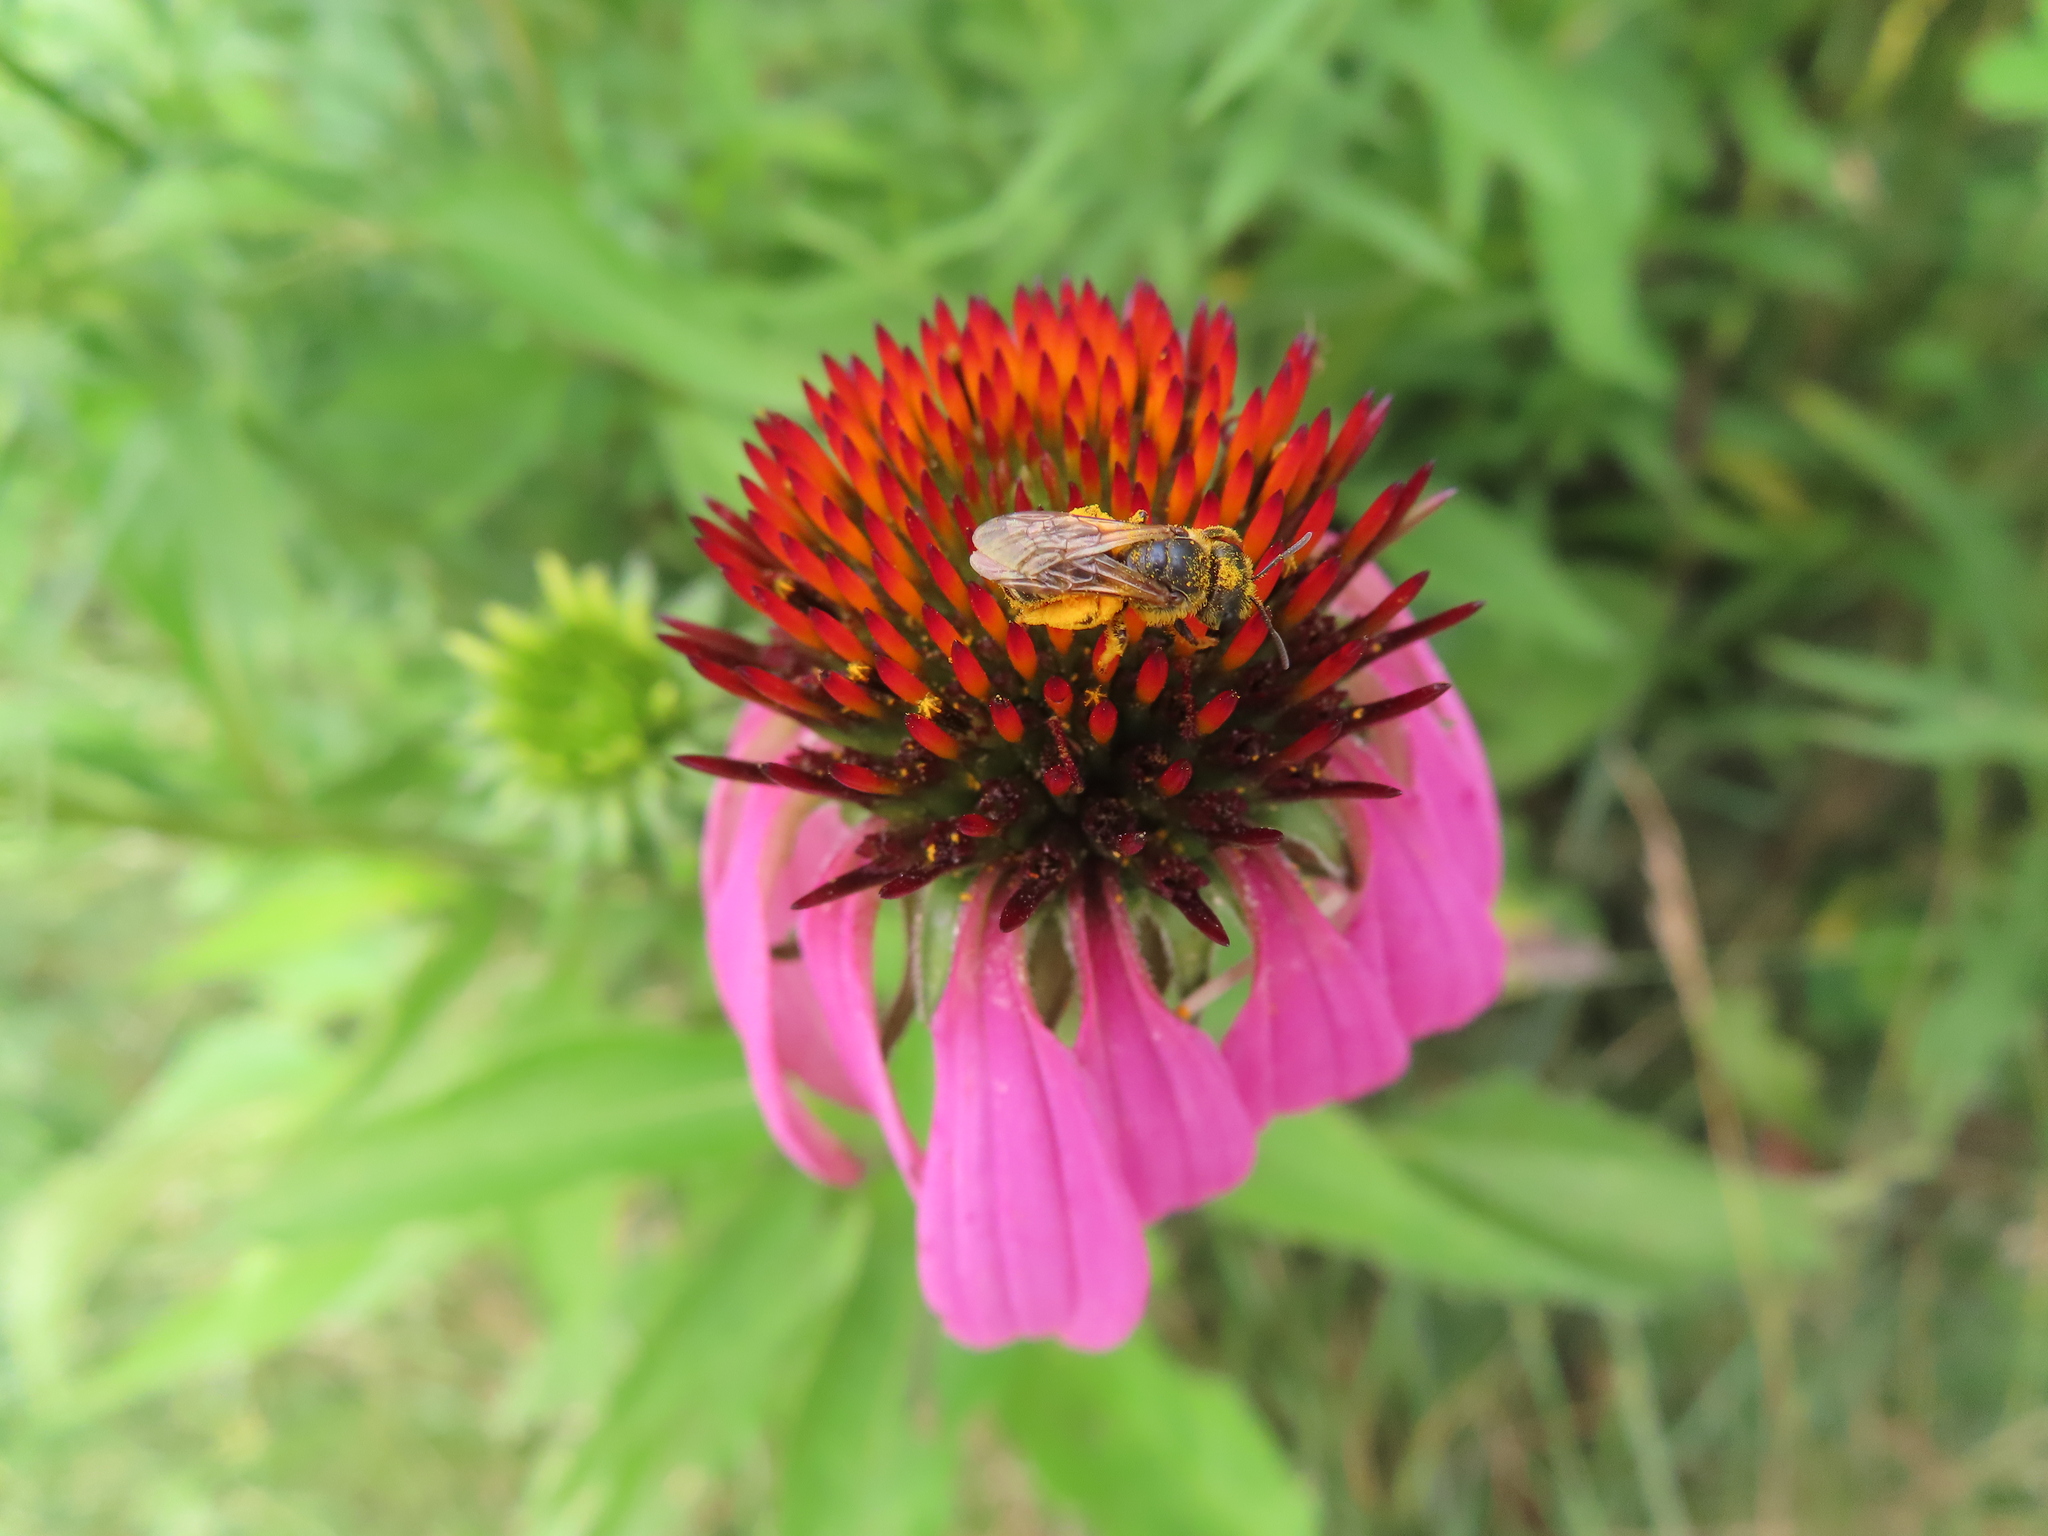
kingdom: Animalia
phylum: Arthropoda
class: Insecta
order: Hymenoptera
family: Halictidae
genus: Halictus
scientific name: Halictus ligatus
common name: Ligated furrow bee
